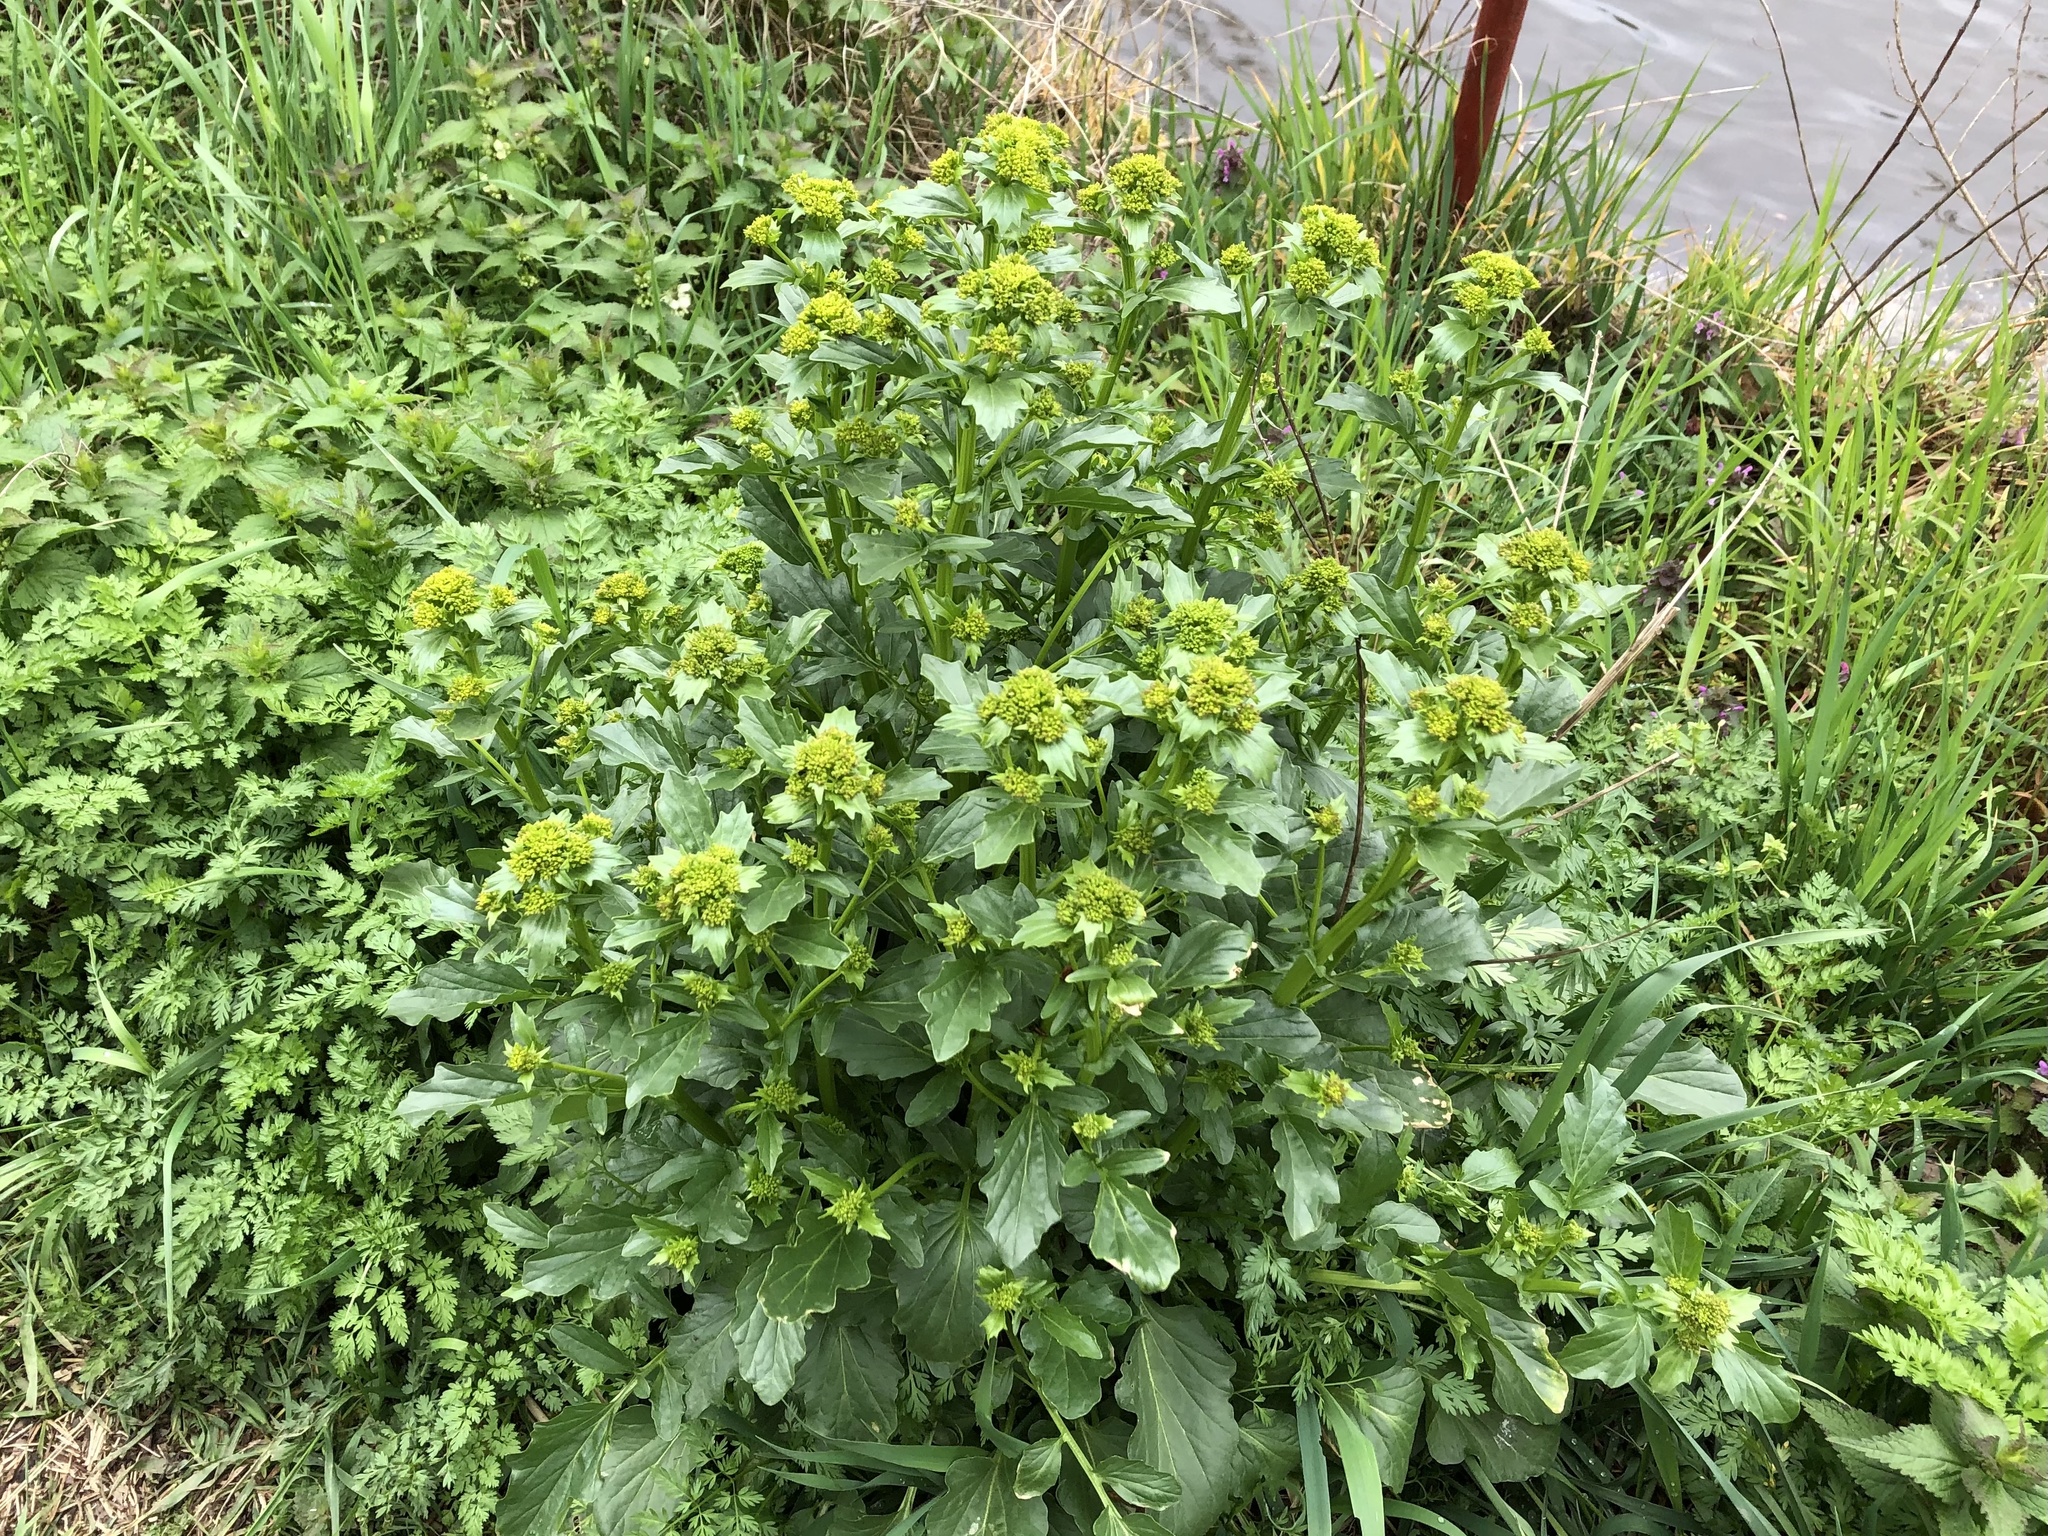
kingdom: Plantae
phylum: Tracheophyta
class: Magnoliopsida
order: Brassicales
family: Brassicaceae
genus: Barbarea
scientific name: Barbarea vulgaris
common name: Cressy-greens
